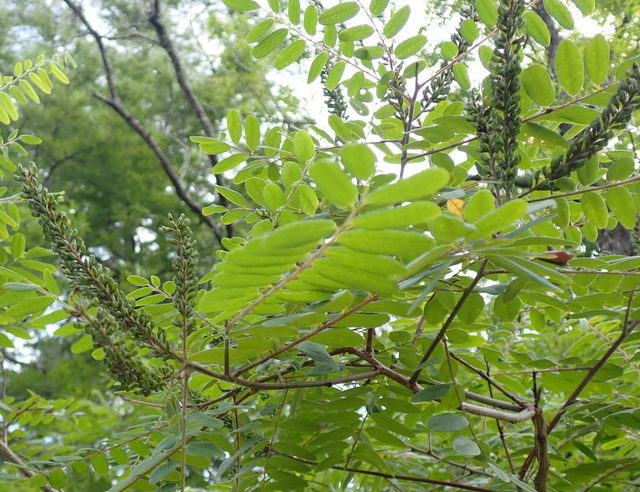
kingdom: Plantae
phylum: Tracheophyta
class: Magnoliopsida
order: Fabales
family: Fabaceae
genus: Amorpha
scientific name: Amorpha fruticosa
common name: False indigo
